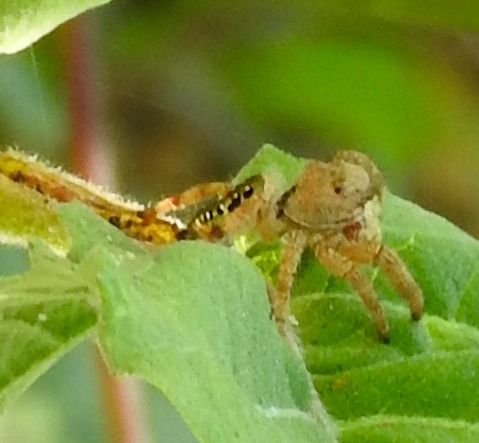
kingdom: Animalia
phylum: Arthropoda
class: Arachnida
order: Araneae
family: Salticidae
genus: Paraphidippus
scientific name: Paraphidippus aurantius
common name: Jumping spiders
